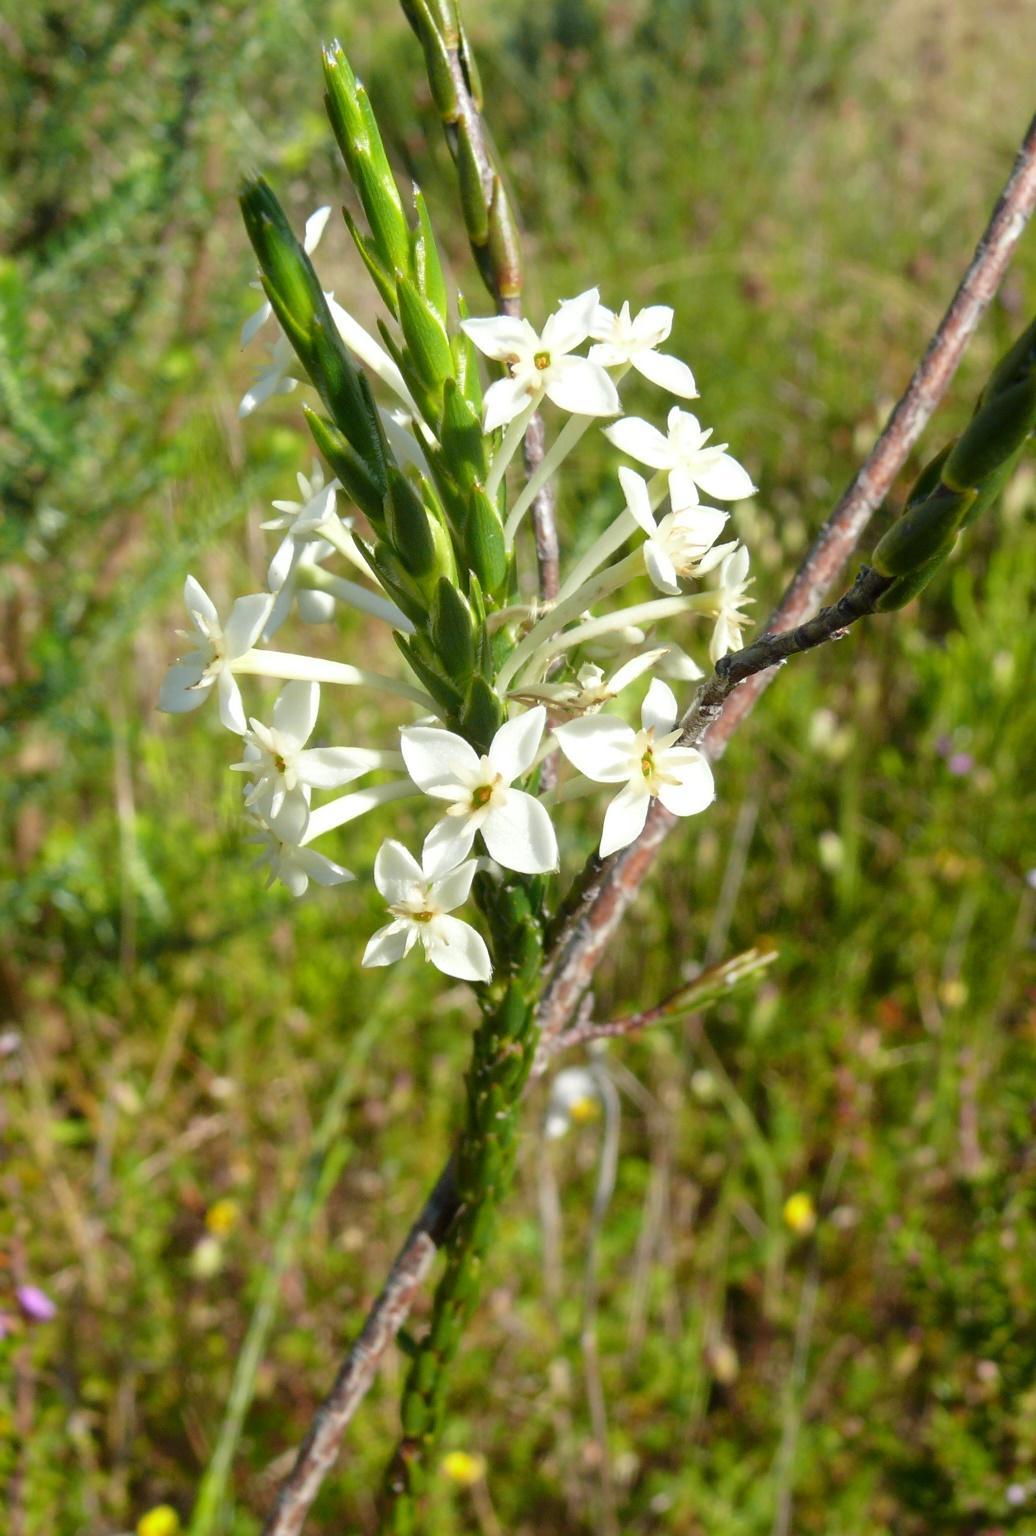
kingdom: Plantae
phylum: Tracheophyta
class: Magnoliopsida
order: Malvales
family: Thymelaeaceae
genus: Struthiola
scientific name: Struthiola myrsinites
